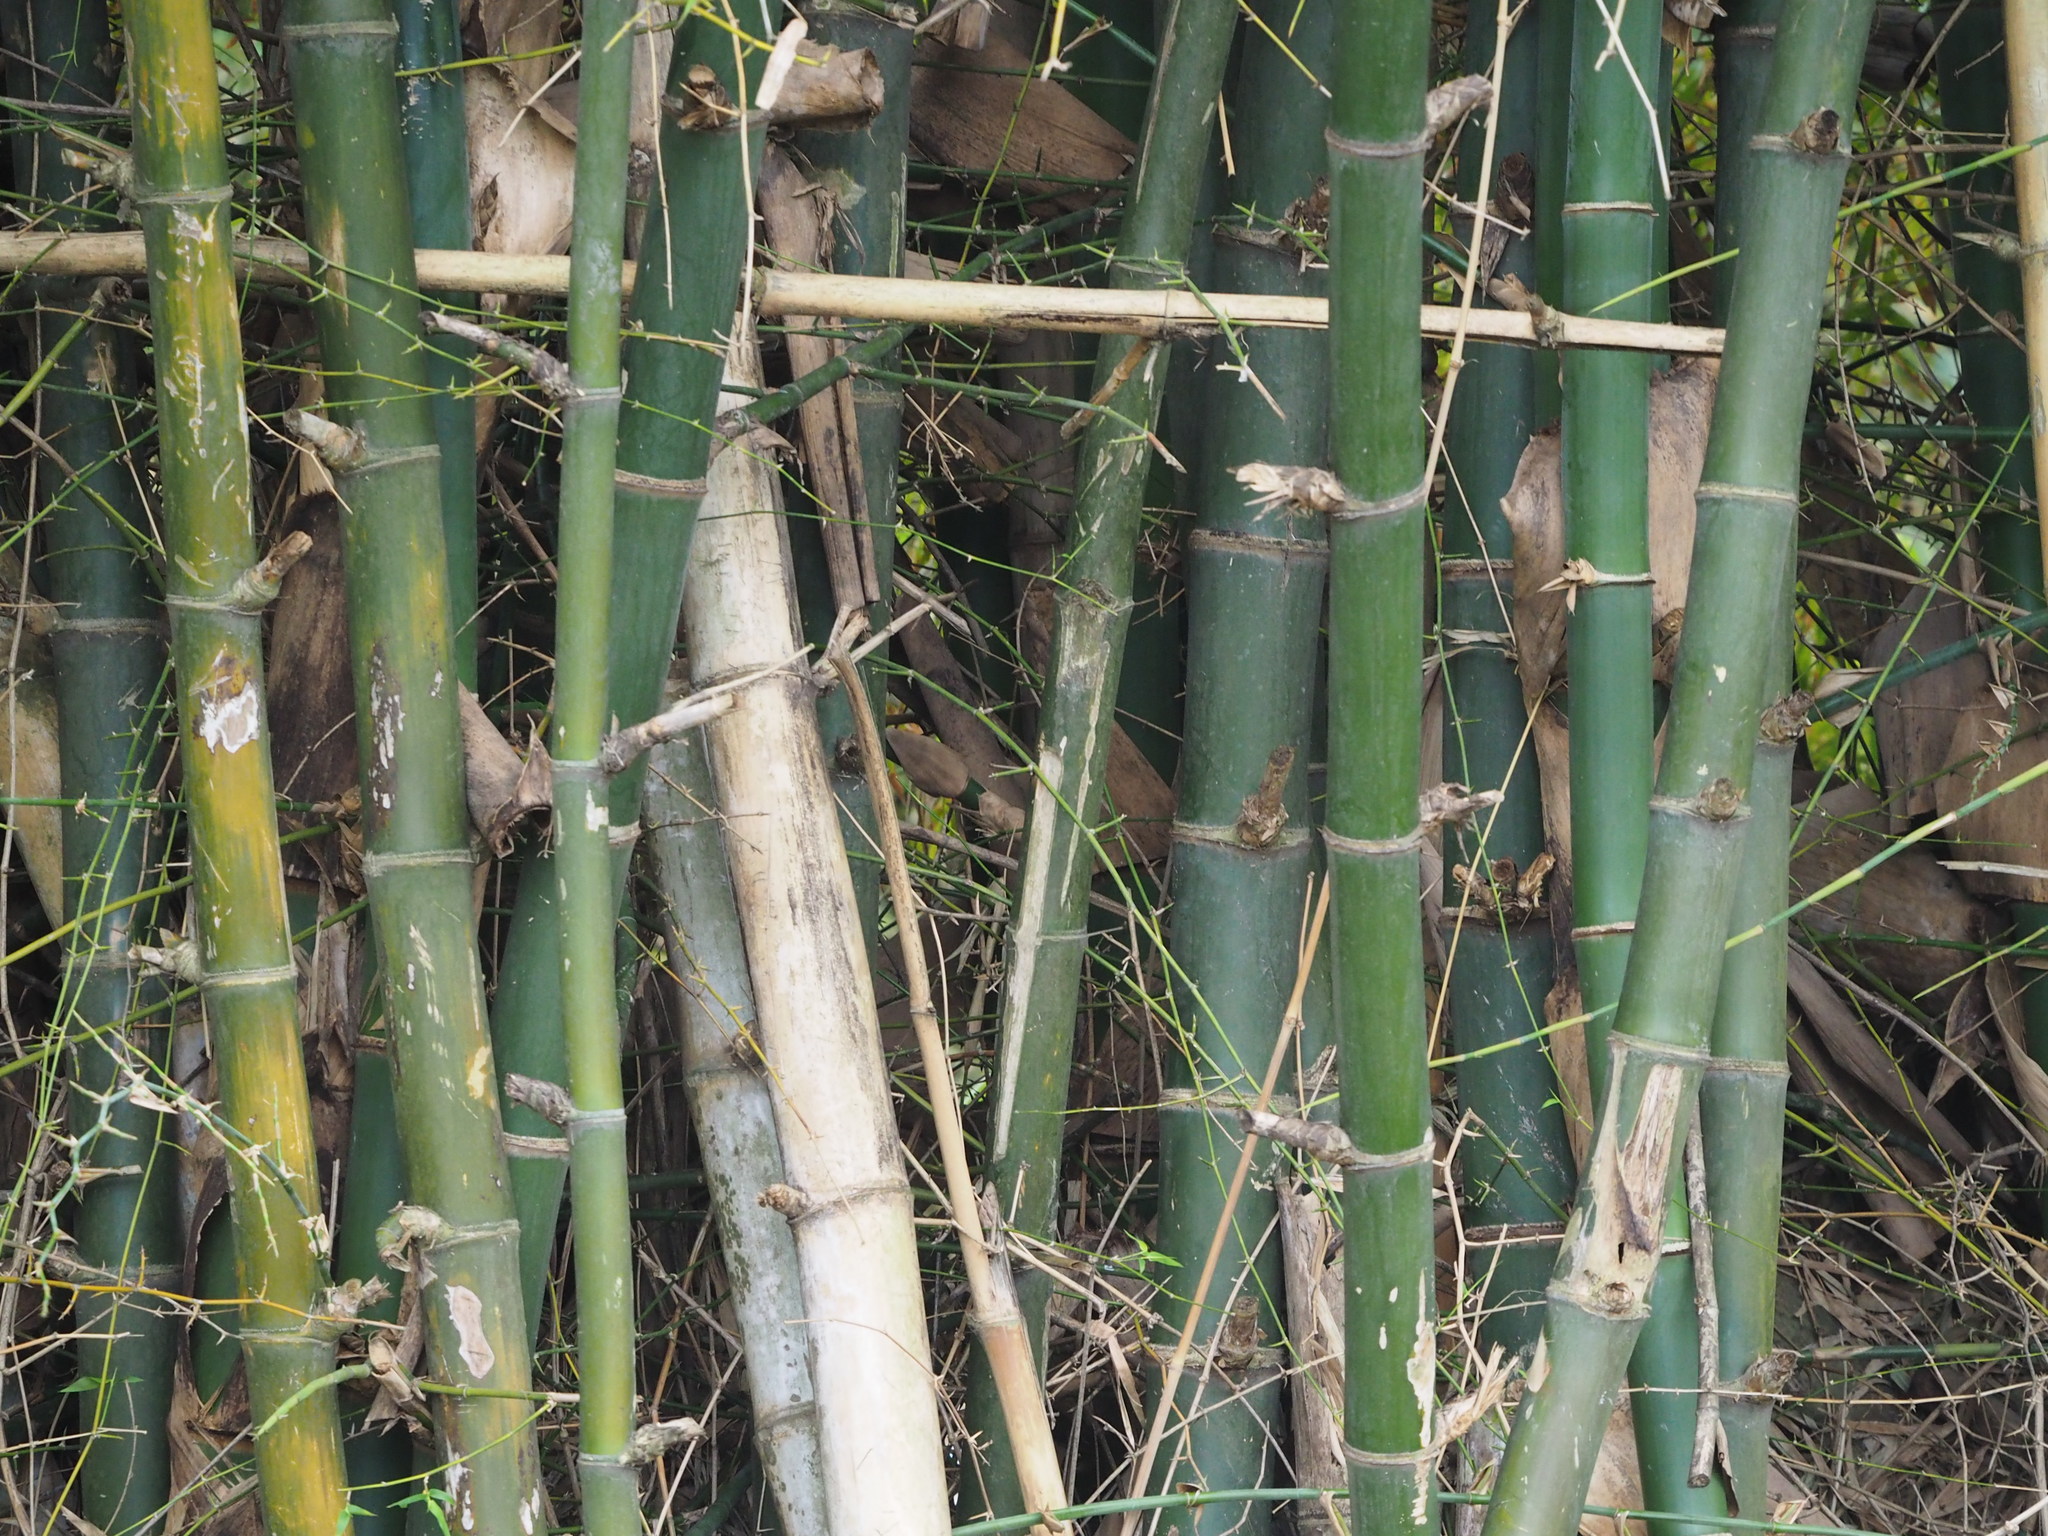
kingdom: Plantae
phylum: Tracheophyta
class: Liliopsida
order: Poales
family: Poaceae
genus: Bambusa
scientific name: Bambusa spinosa
